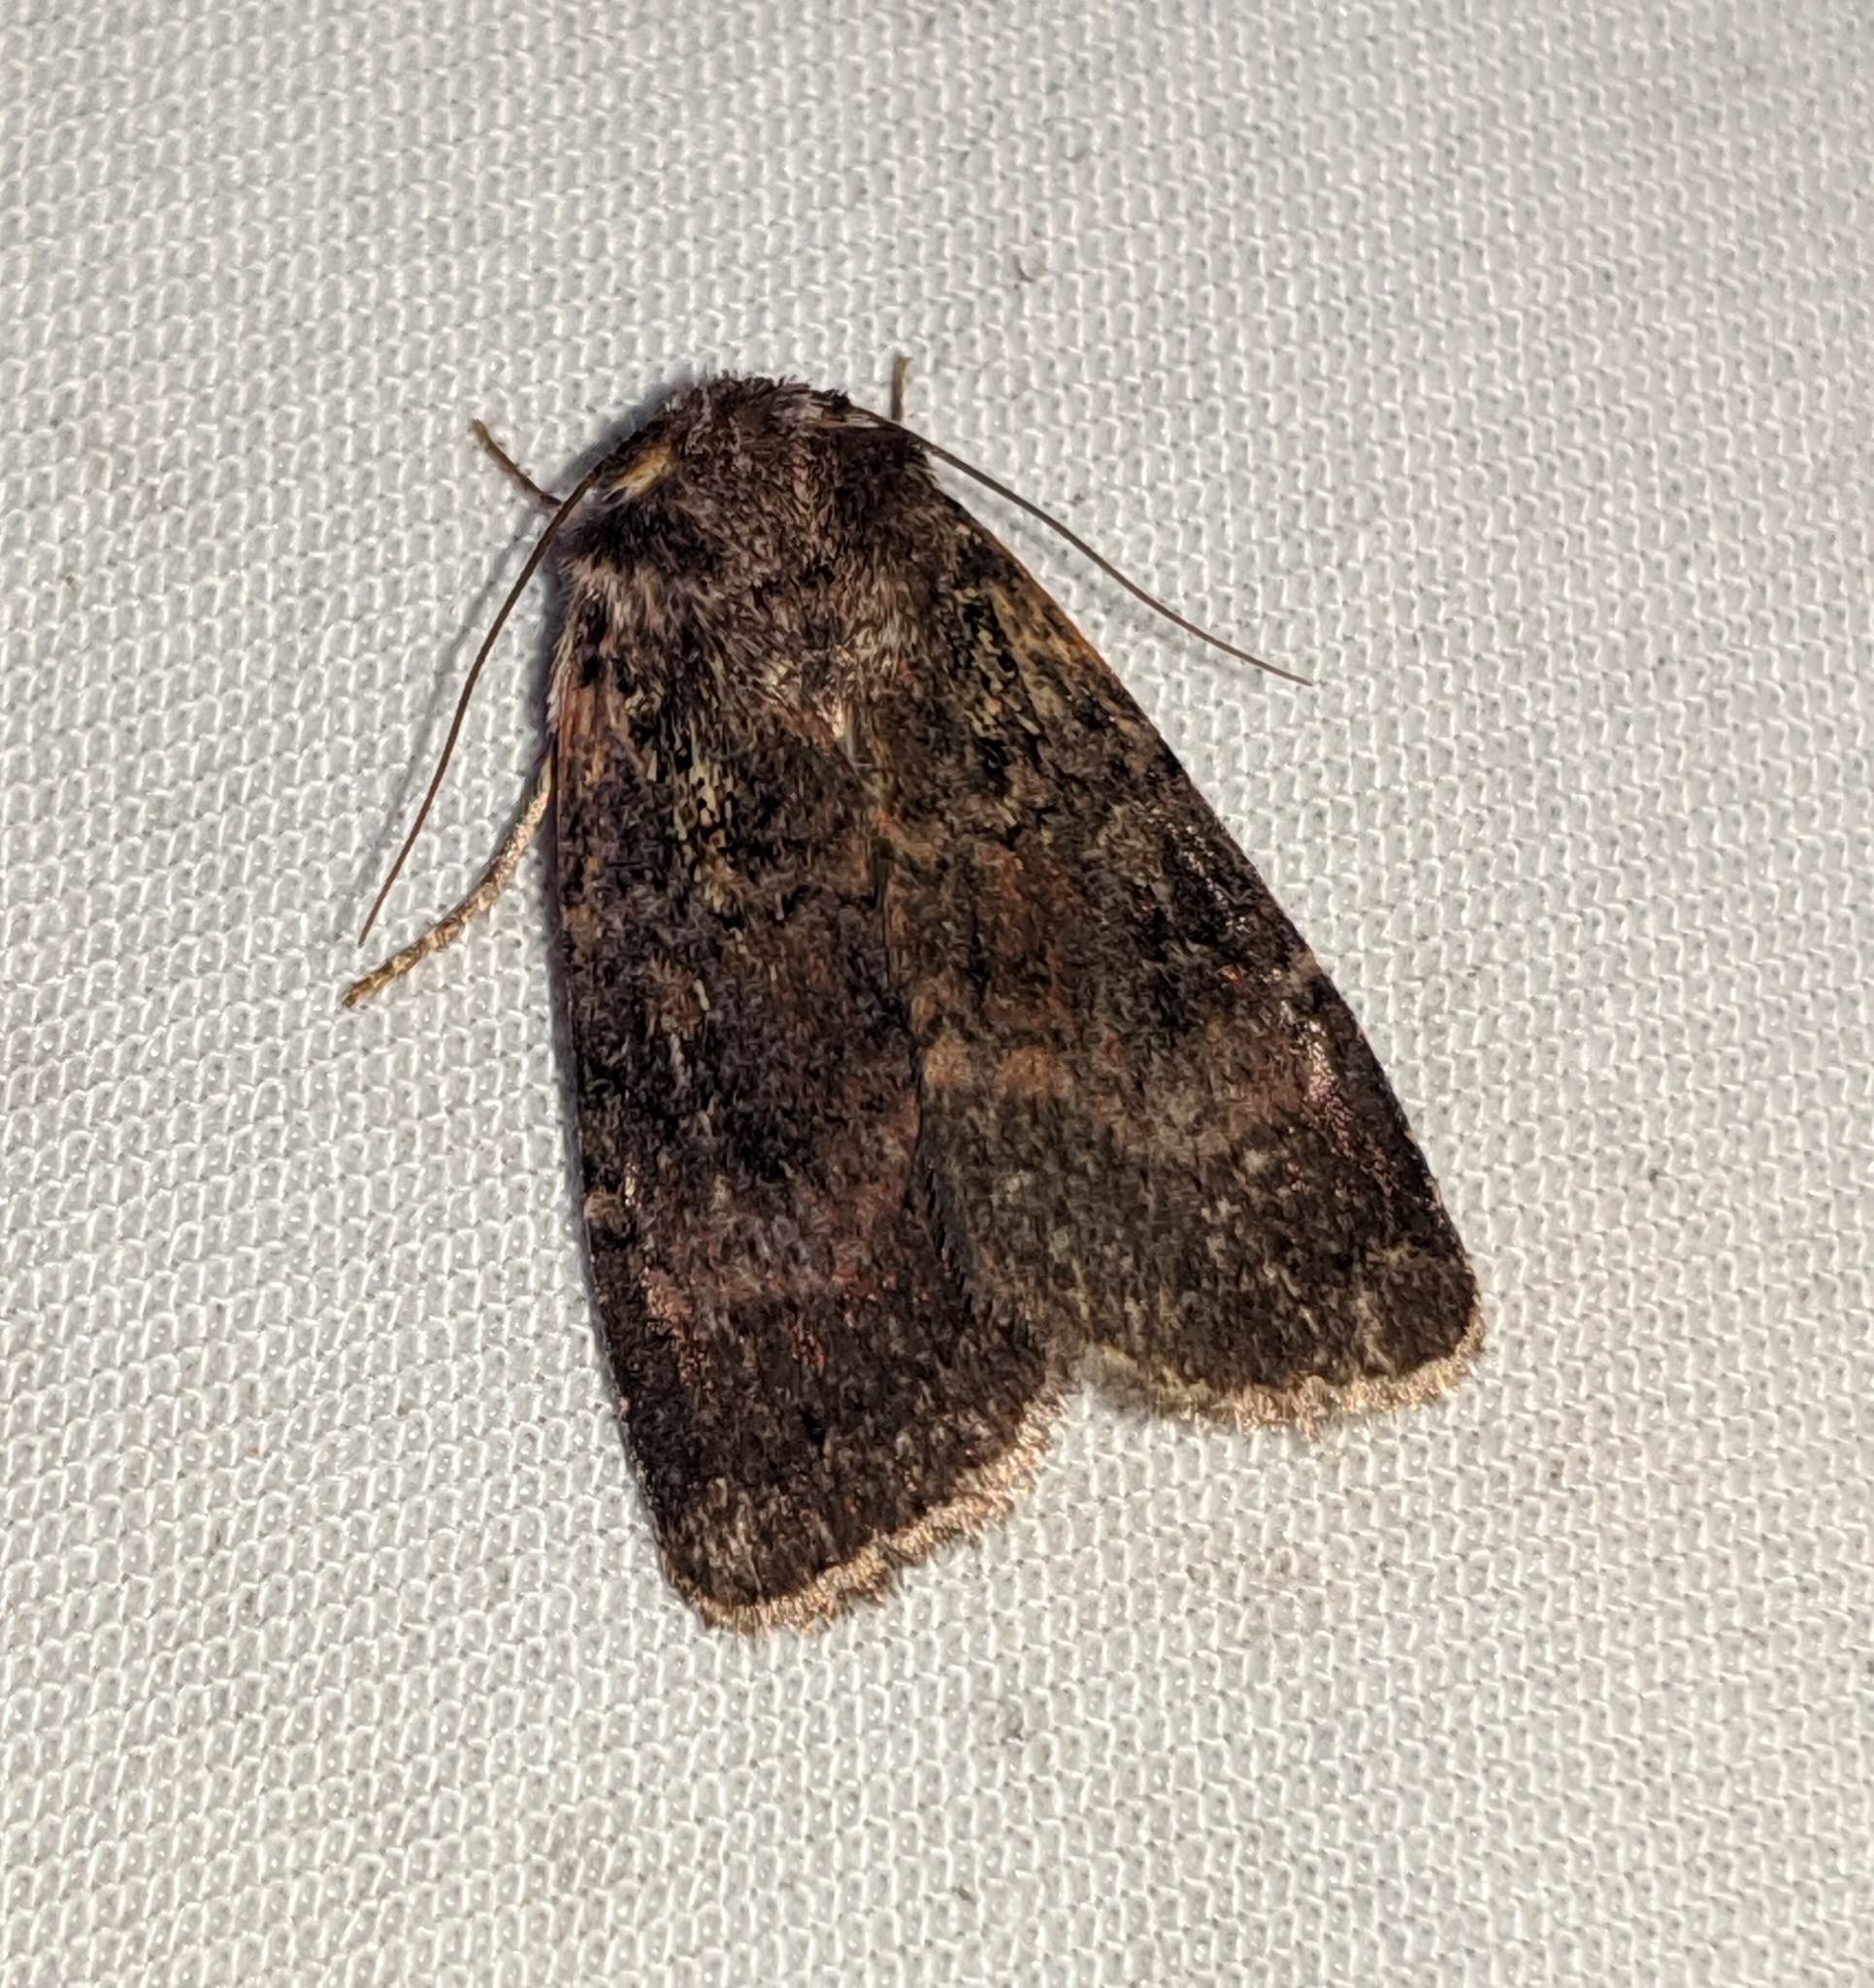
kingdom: Animalia
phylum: Arthropoda
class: Insecta
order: Lepidoptera
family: Noctuidae
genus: Abagrotis
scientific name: Abagrotis apposita
